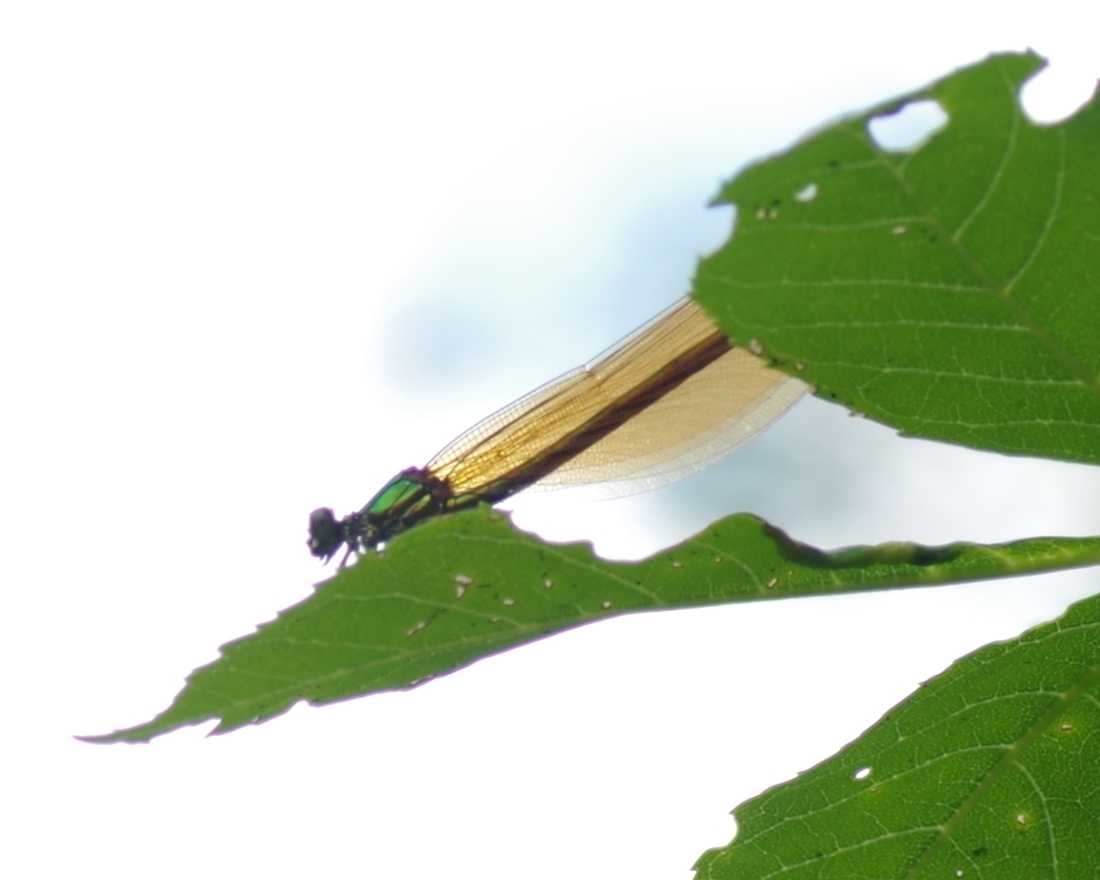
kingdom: Animalia
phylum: Arthropoda
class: Insecta
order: Odonata
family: Calopterygidae
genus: Calopteryx
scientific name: Calopteryx virgo
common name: Beautiful demoiselle
